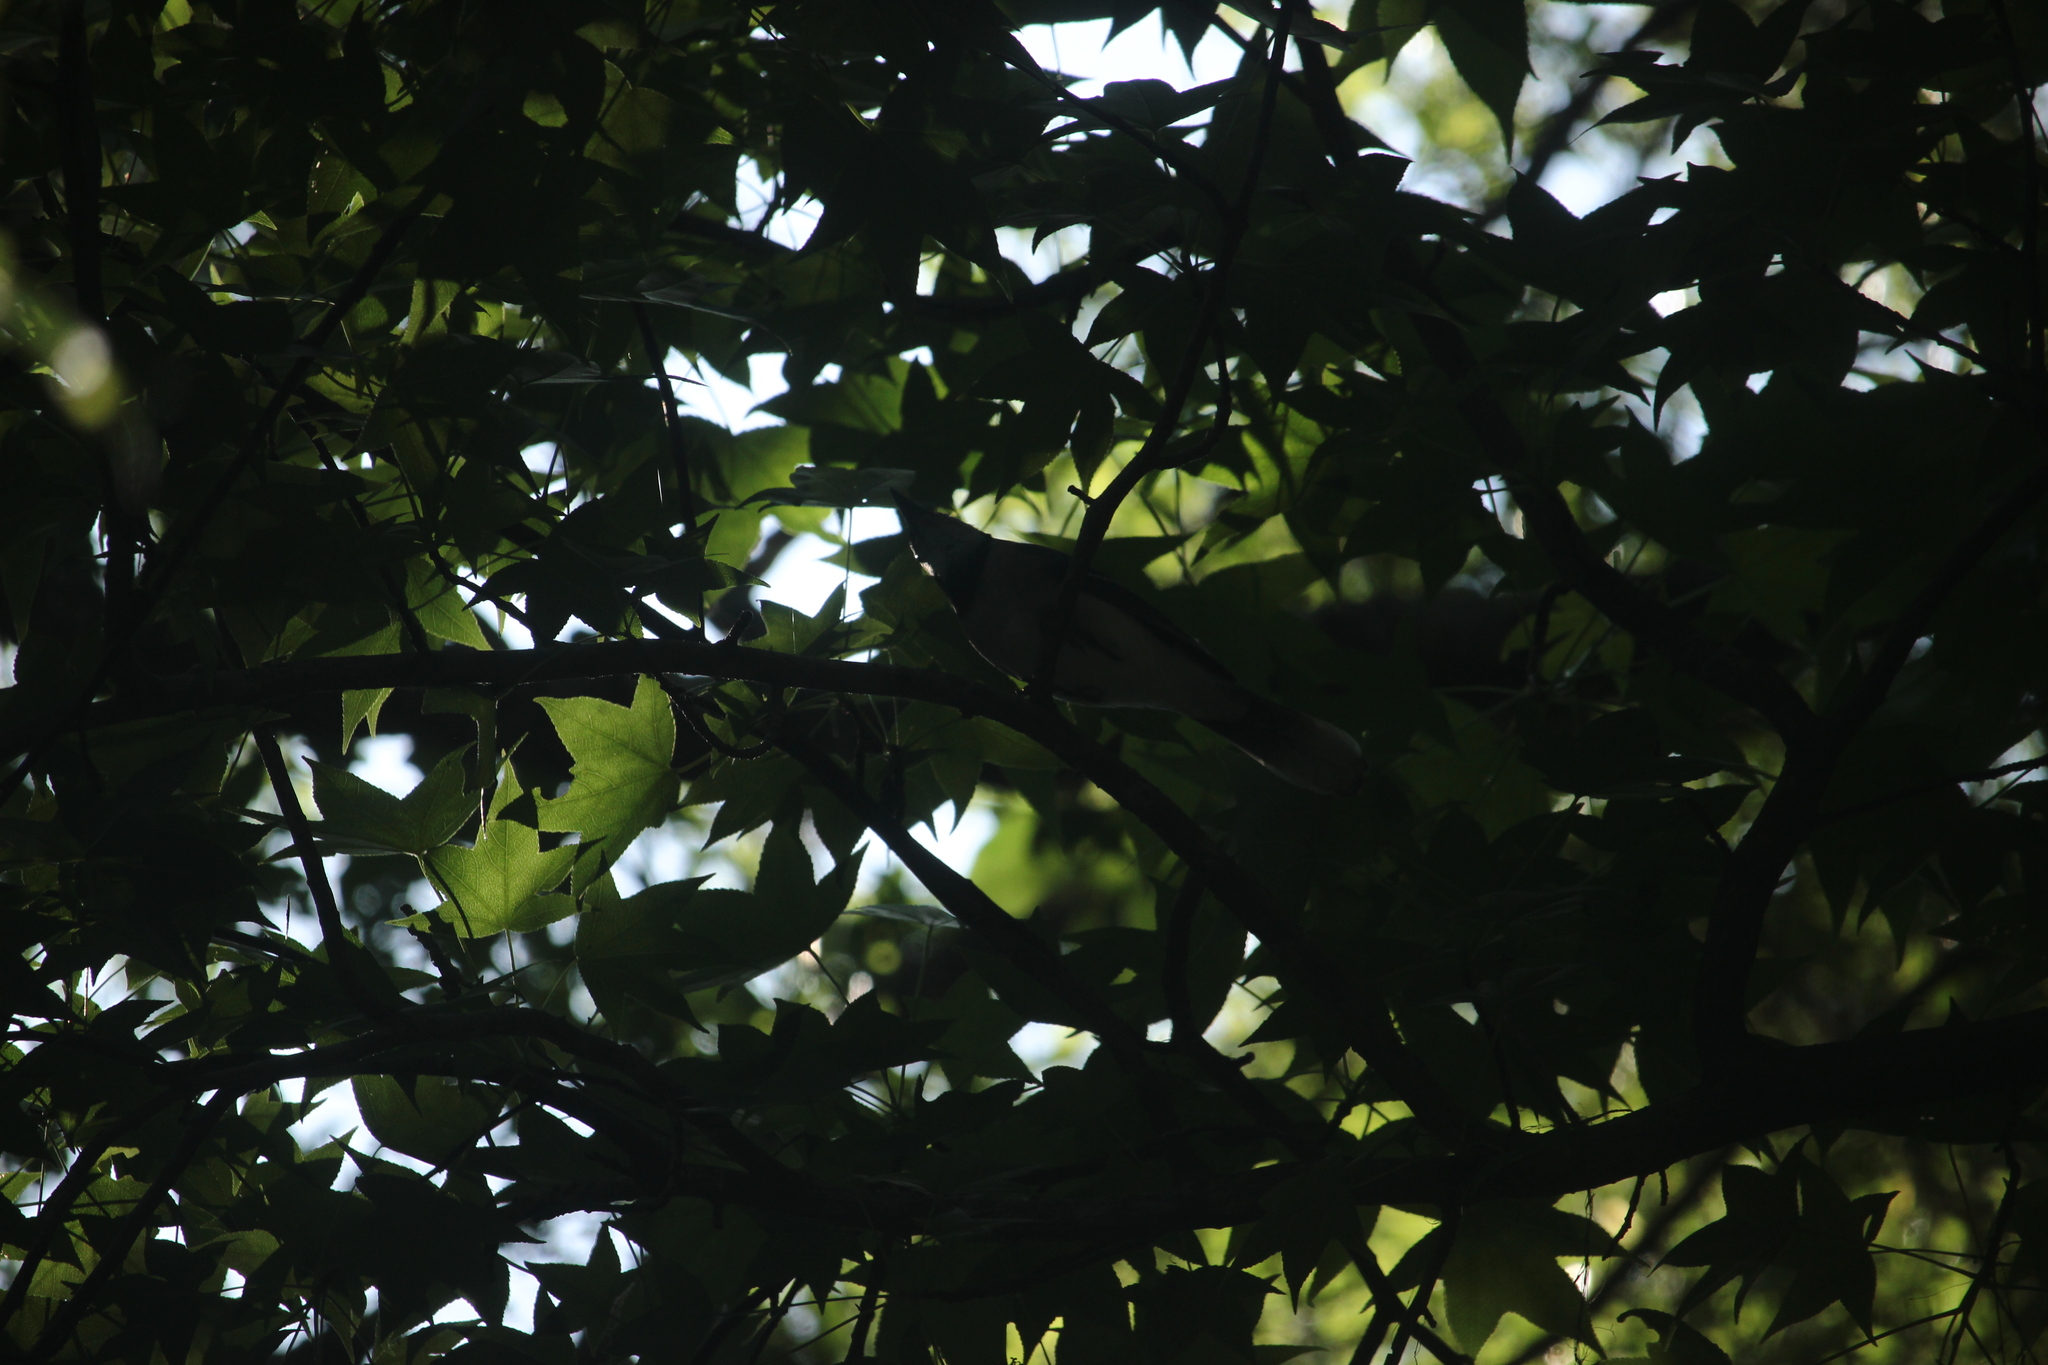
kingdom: Animalia
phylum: Chordata
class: Aves
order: Passeriformes
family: Corvidae
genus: Cyanocitta
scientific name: Cyanocitta cristata
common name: Blue jay
